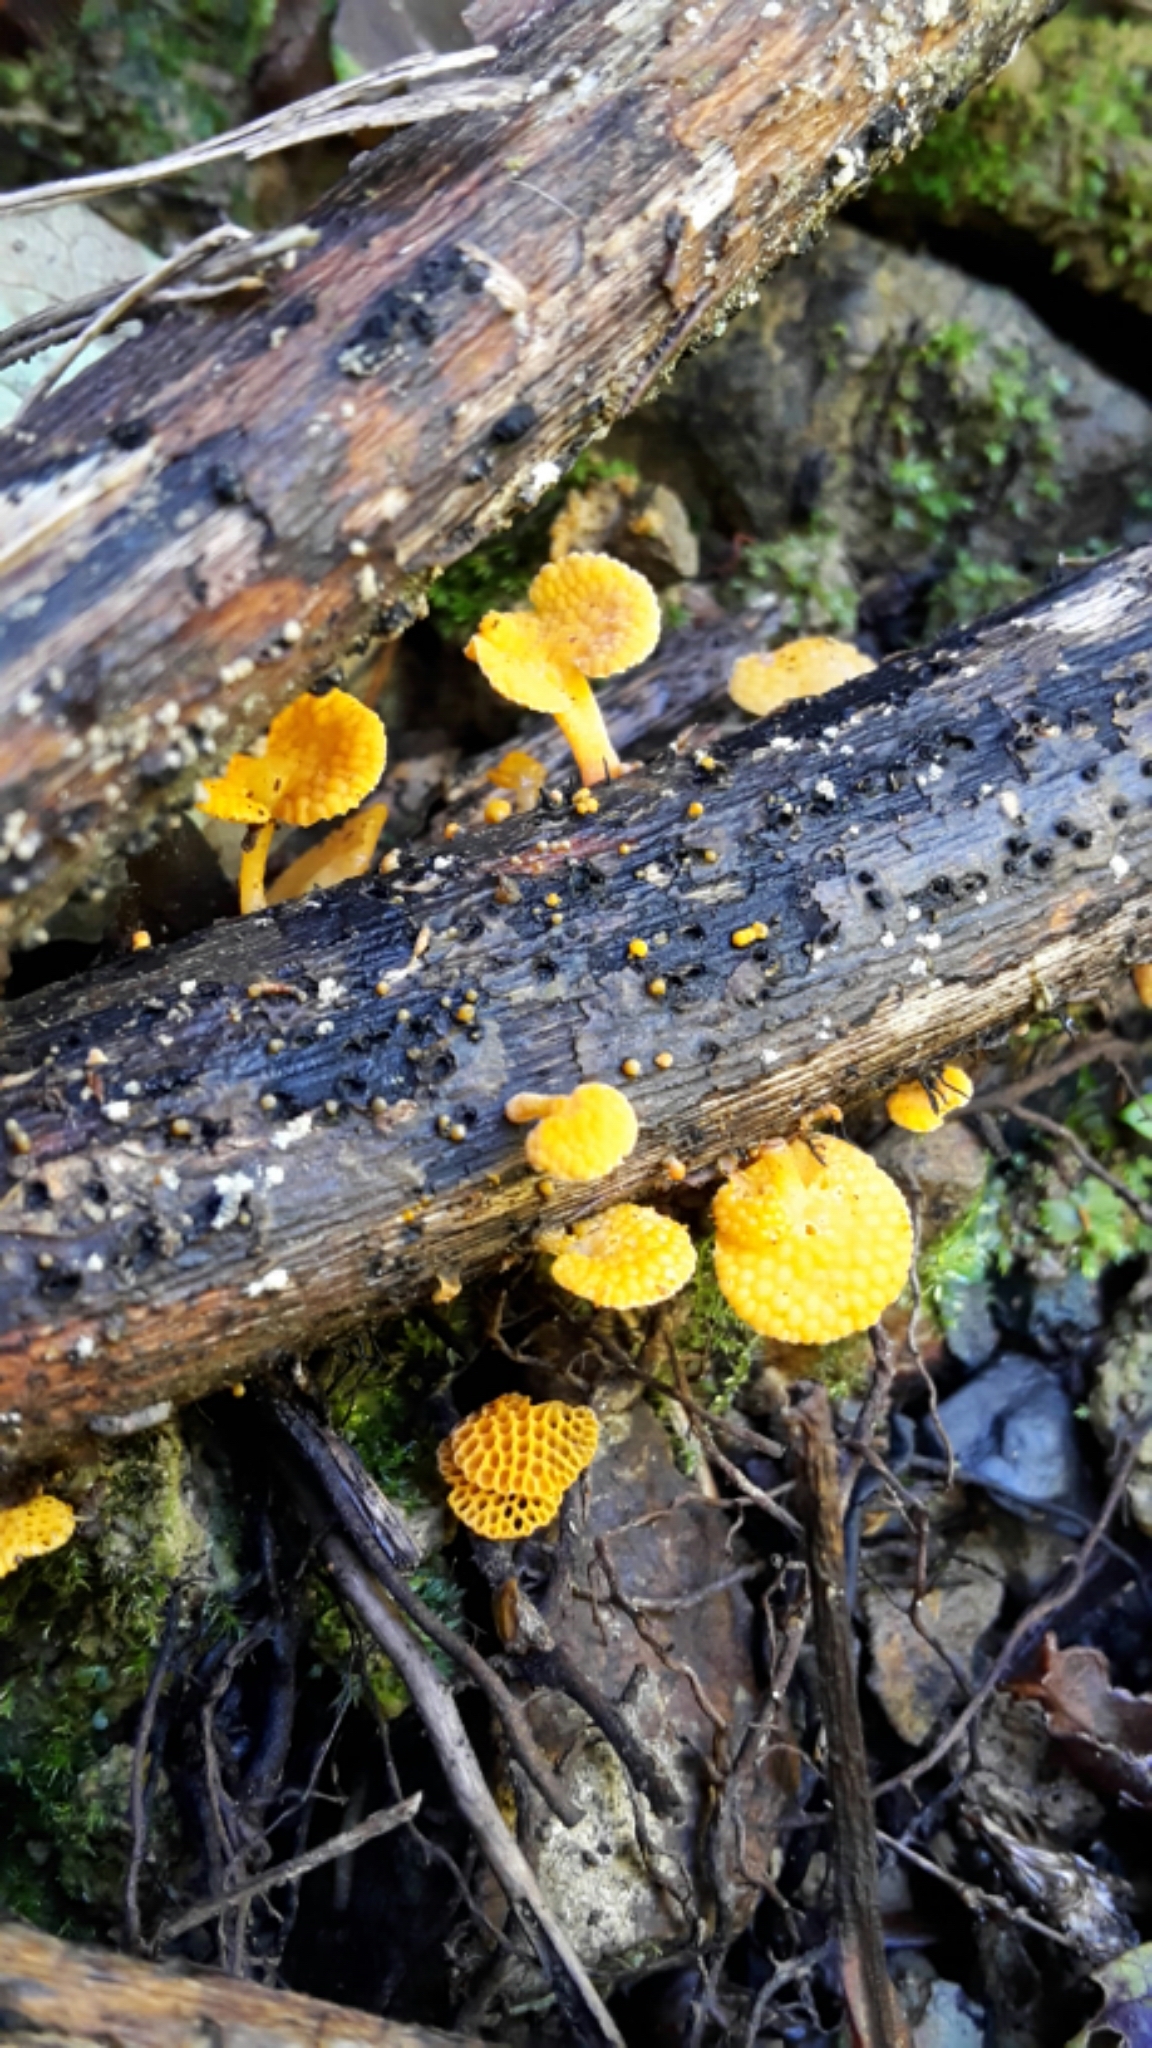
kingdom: Fungi
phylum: Basidiomycota
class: Agaricomycetes
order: Agaricales
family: Mycenaceae
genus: Favolaschia
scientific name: Favolaschia claudopus
